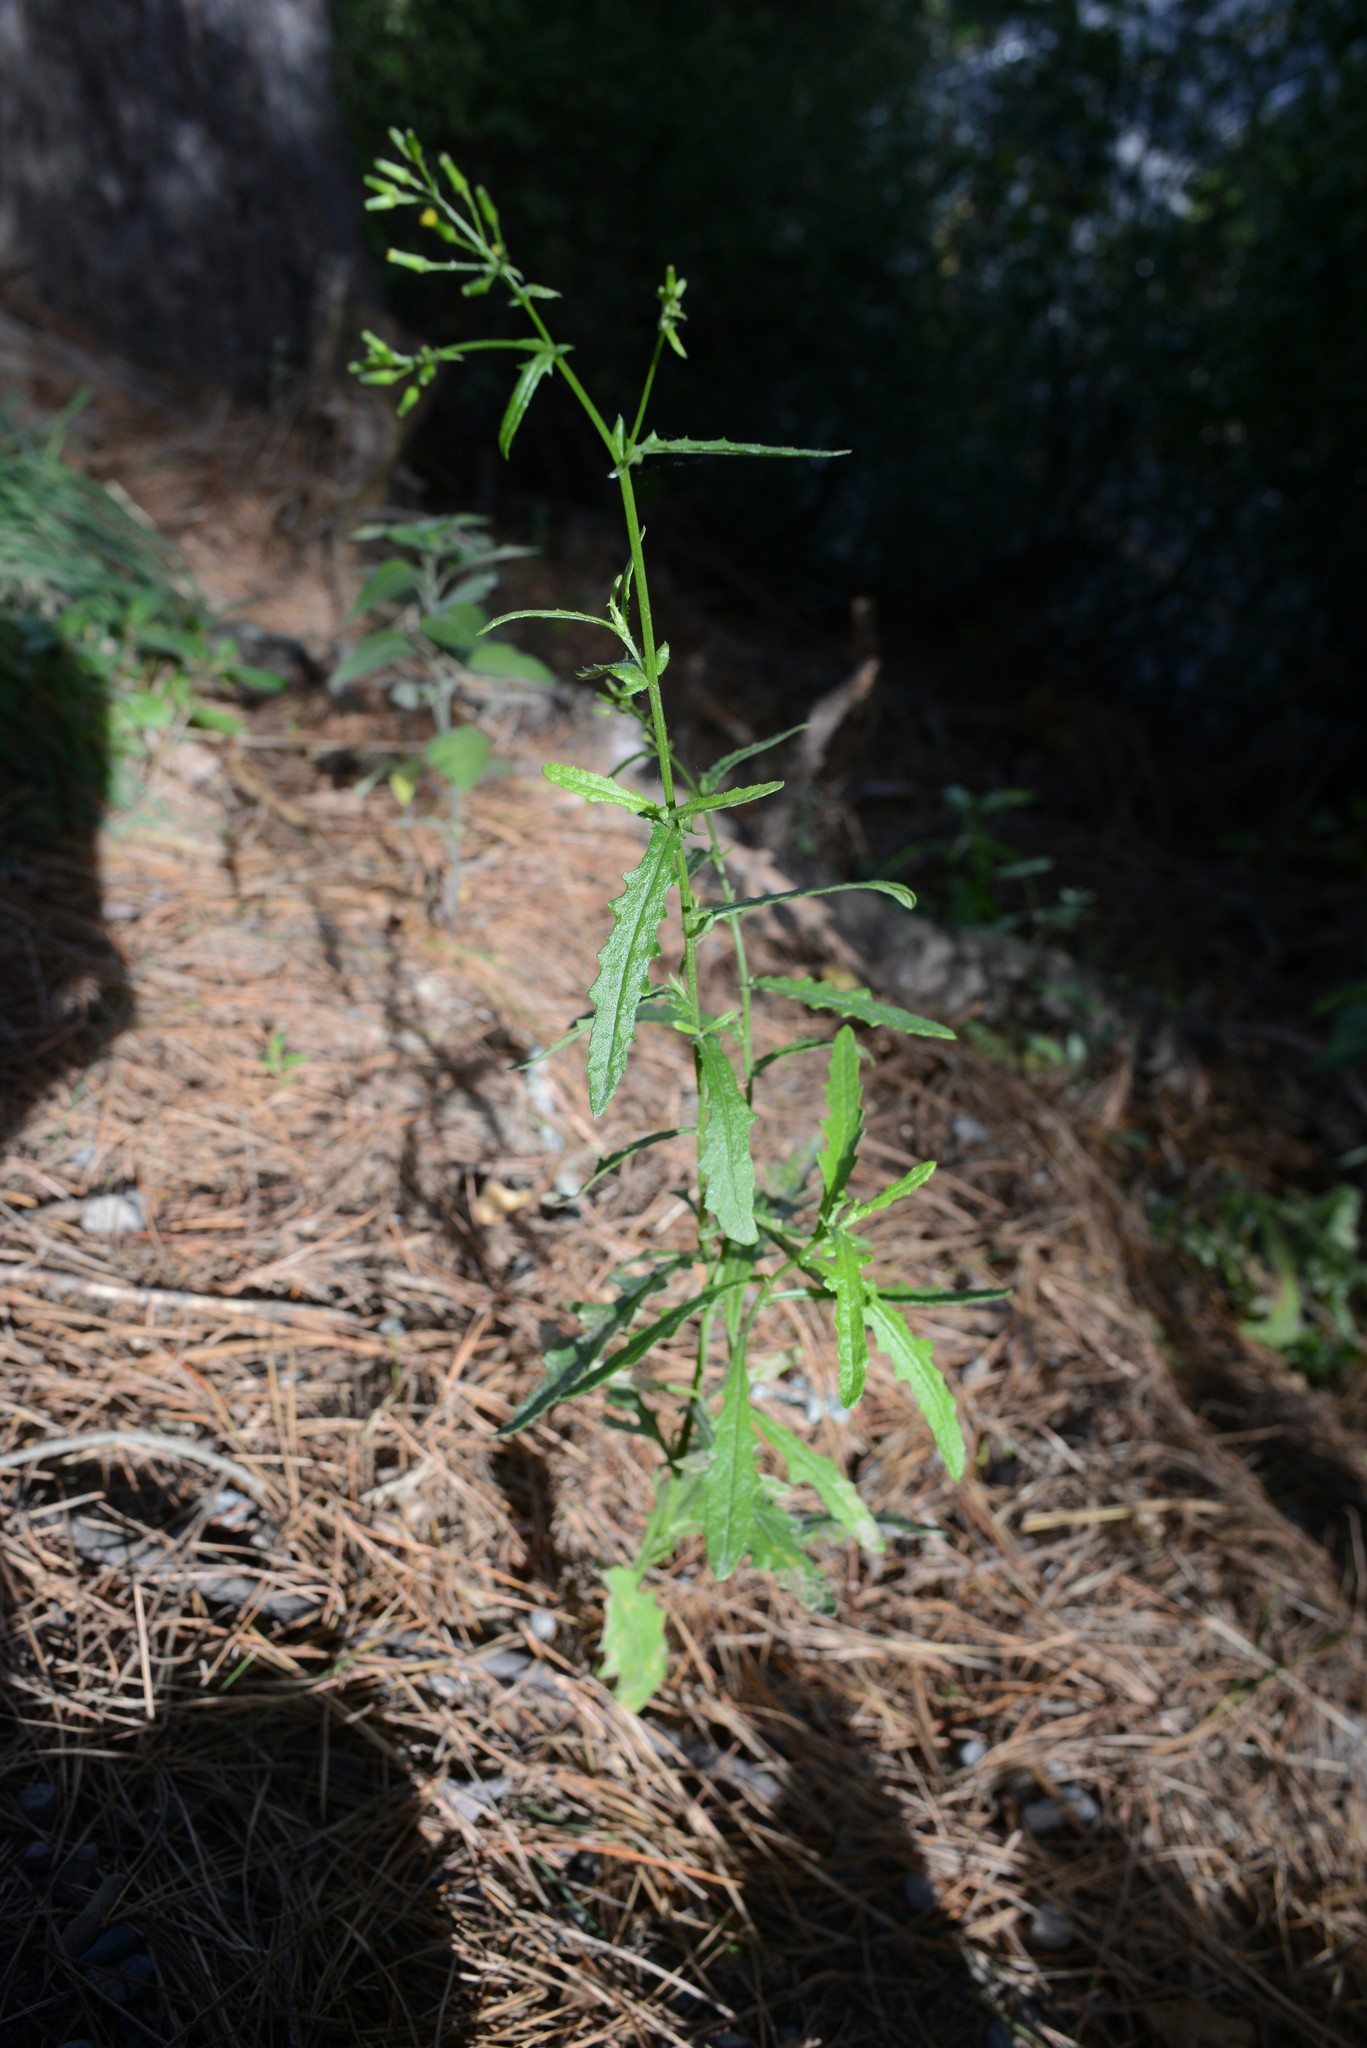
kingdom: Plantae
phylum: Tracheophyta
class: Magnoliopsida
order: Asterales
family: Asteraceae
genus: Senecio
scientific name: Senecio hispidulus
